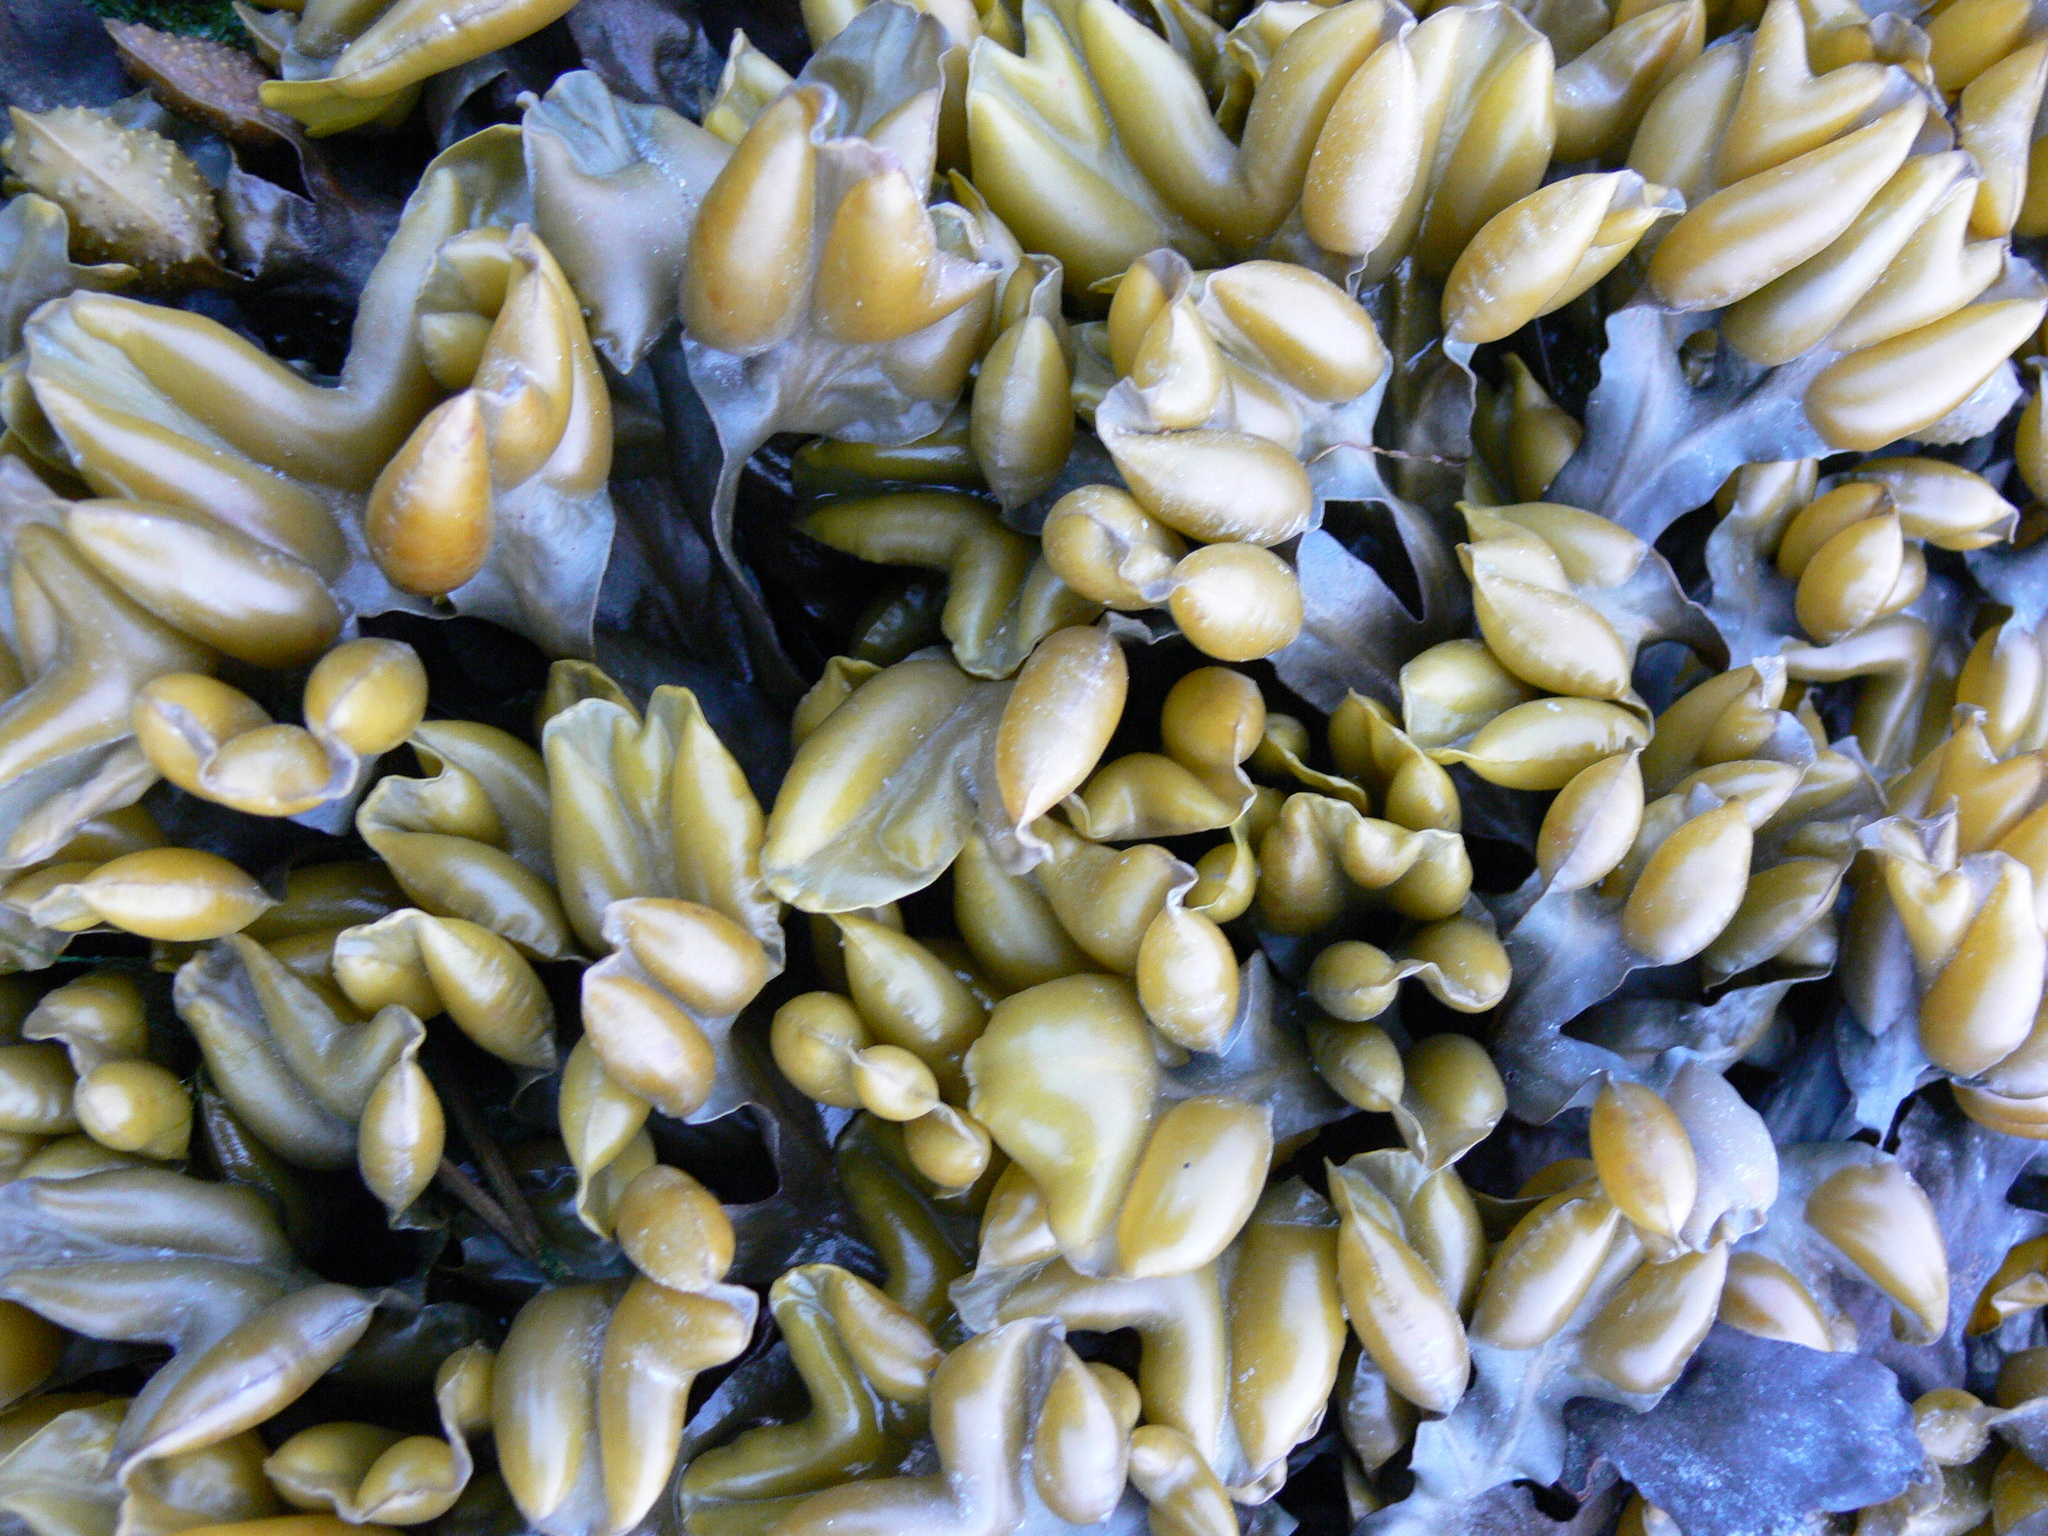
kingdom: Chromista
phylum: Ochrophyta
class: Phaeophyceae
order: Fucales
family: Fucaceae
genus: Fucus
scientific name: Fucus distichus
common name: Rockweed
